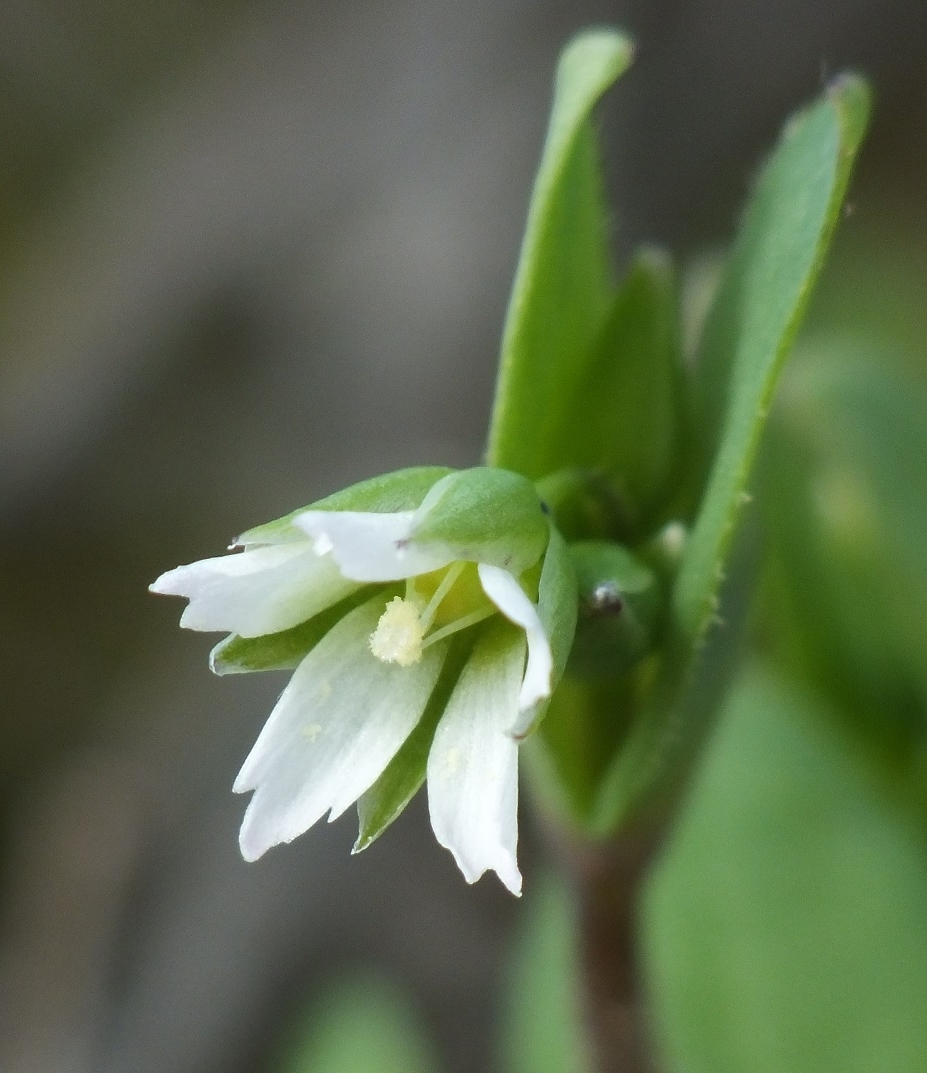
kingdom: Plantae
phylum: Tracheophyta
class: Magnoliopsida
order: Caryophyllales
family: Caryophyllaceae
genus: Holosteum
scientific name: Holosteum umbellatum
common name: Jagged chickweed
